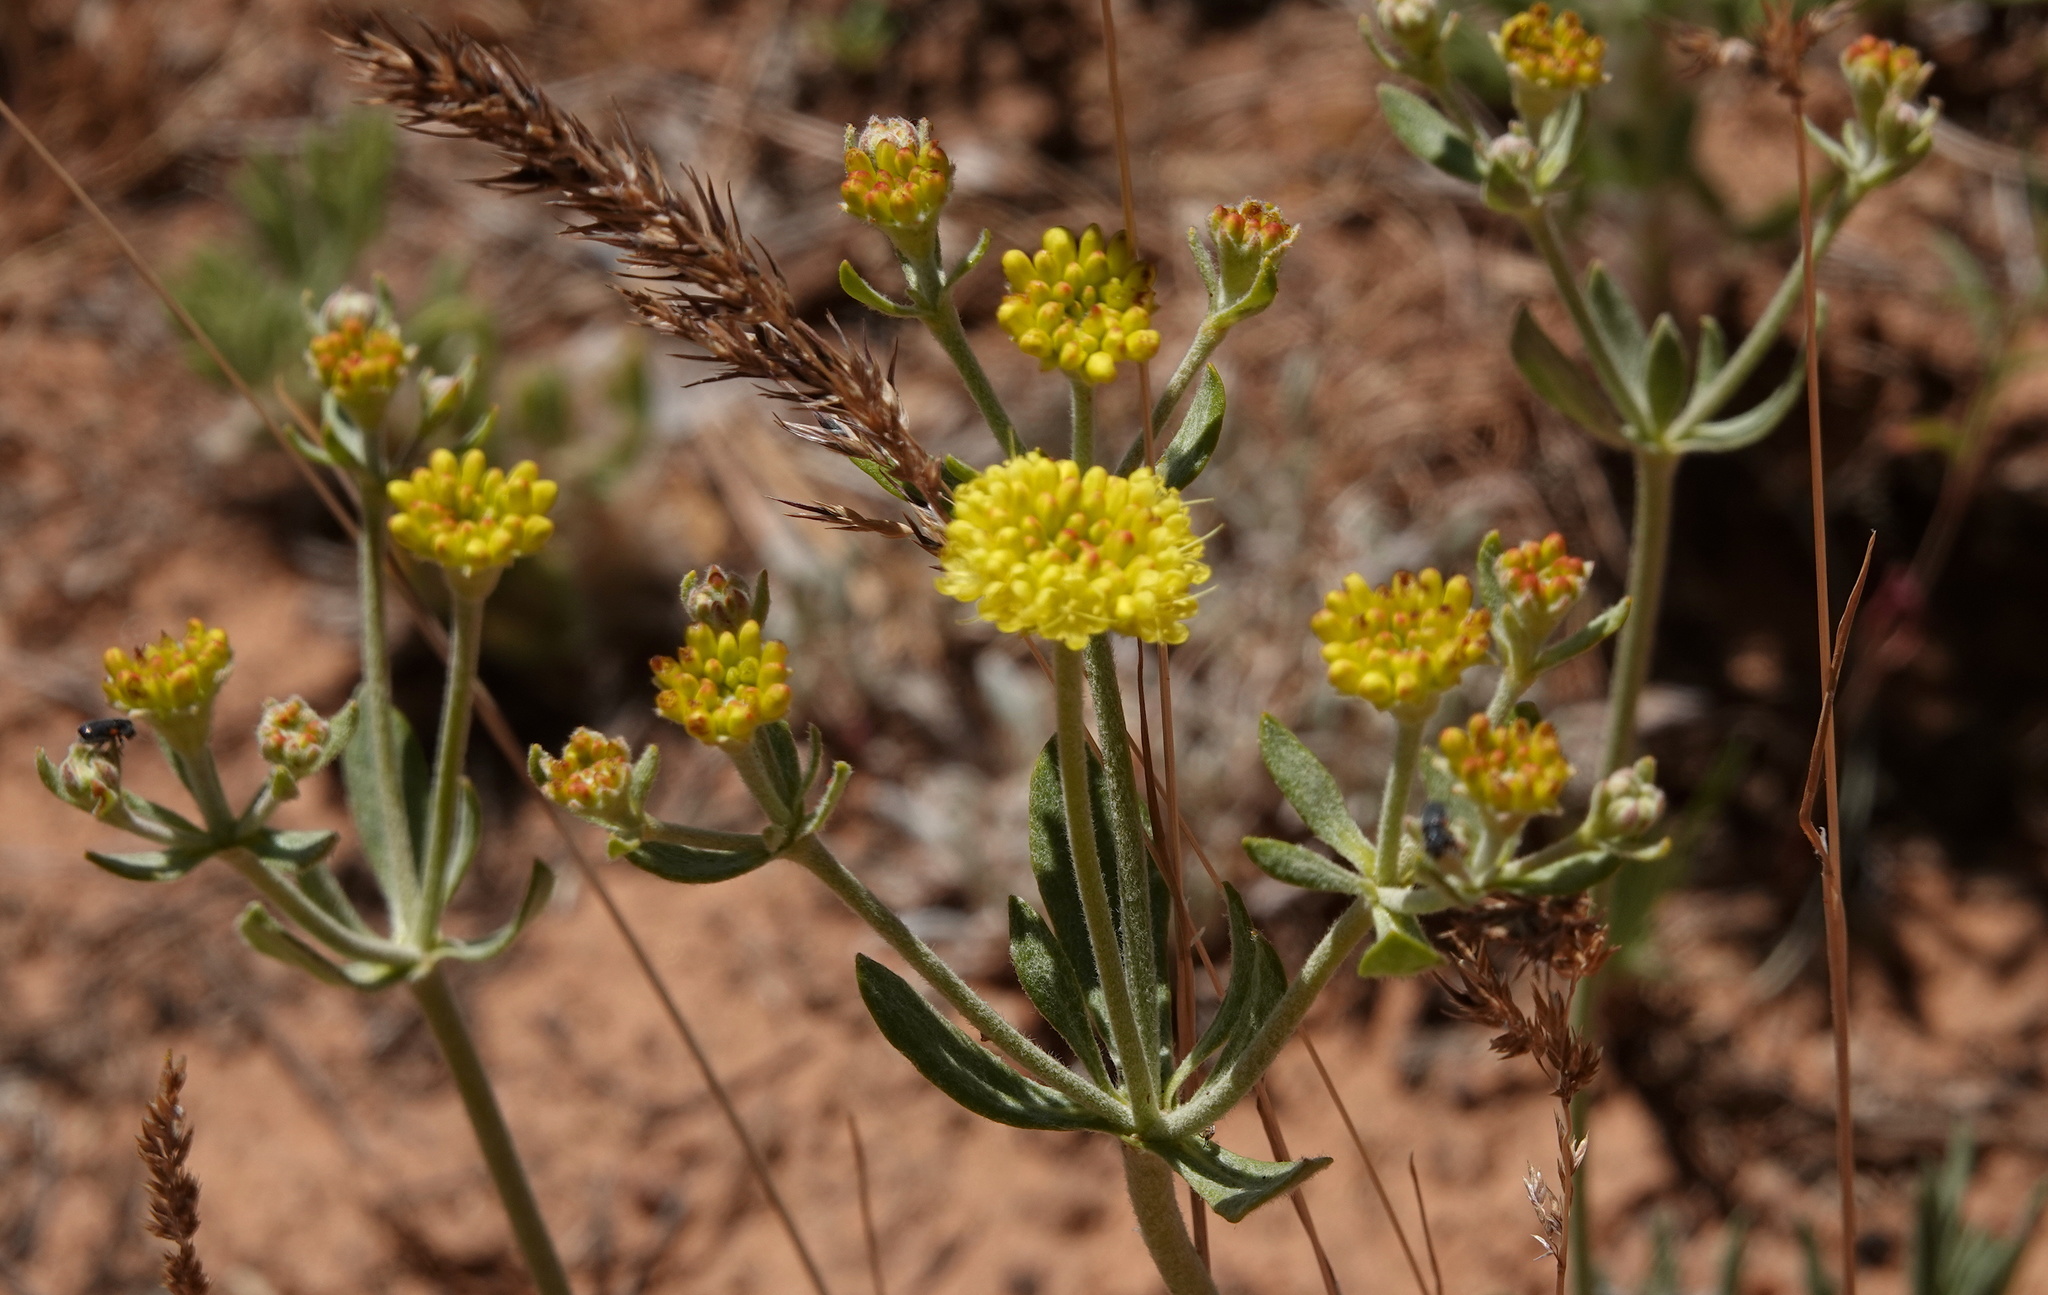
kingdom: Plantae
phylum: Tracheophyta
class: Magnoliopsida
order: Caryophyllales
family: Polygonaceae
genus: Eriogonum
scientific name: Eriogonum umbellatum
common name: Sulfur-buckwheat
